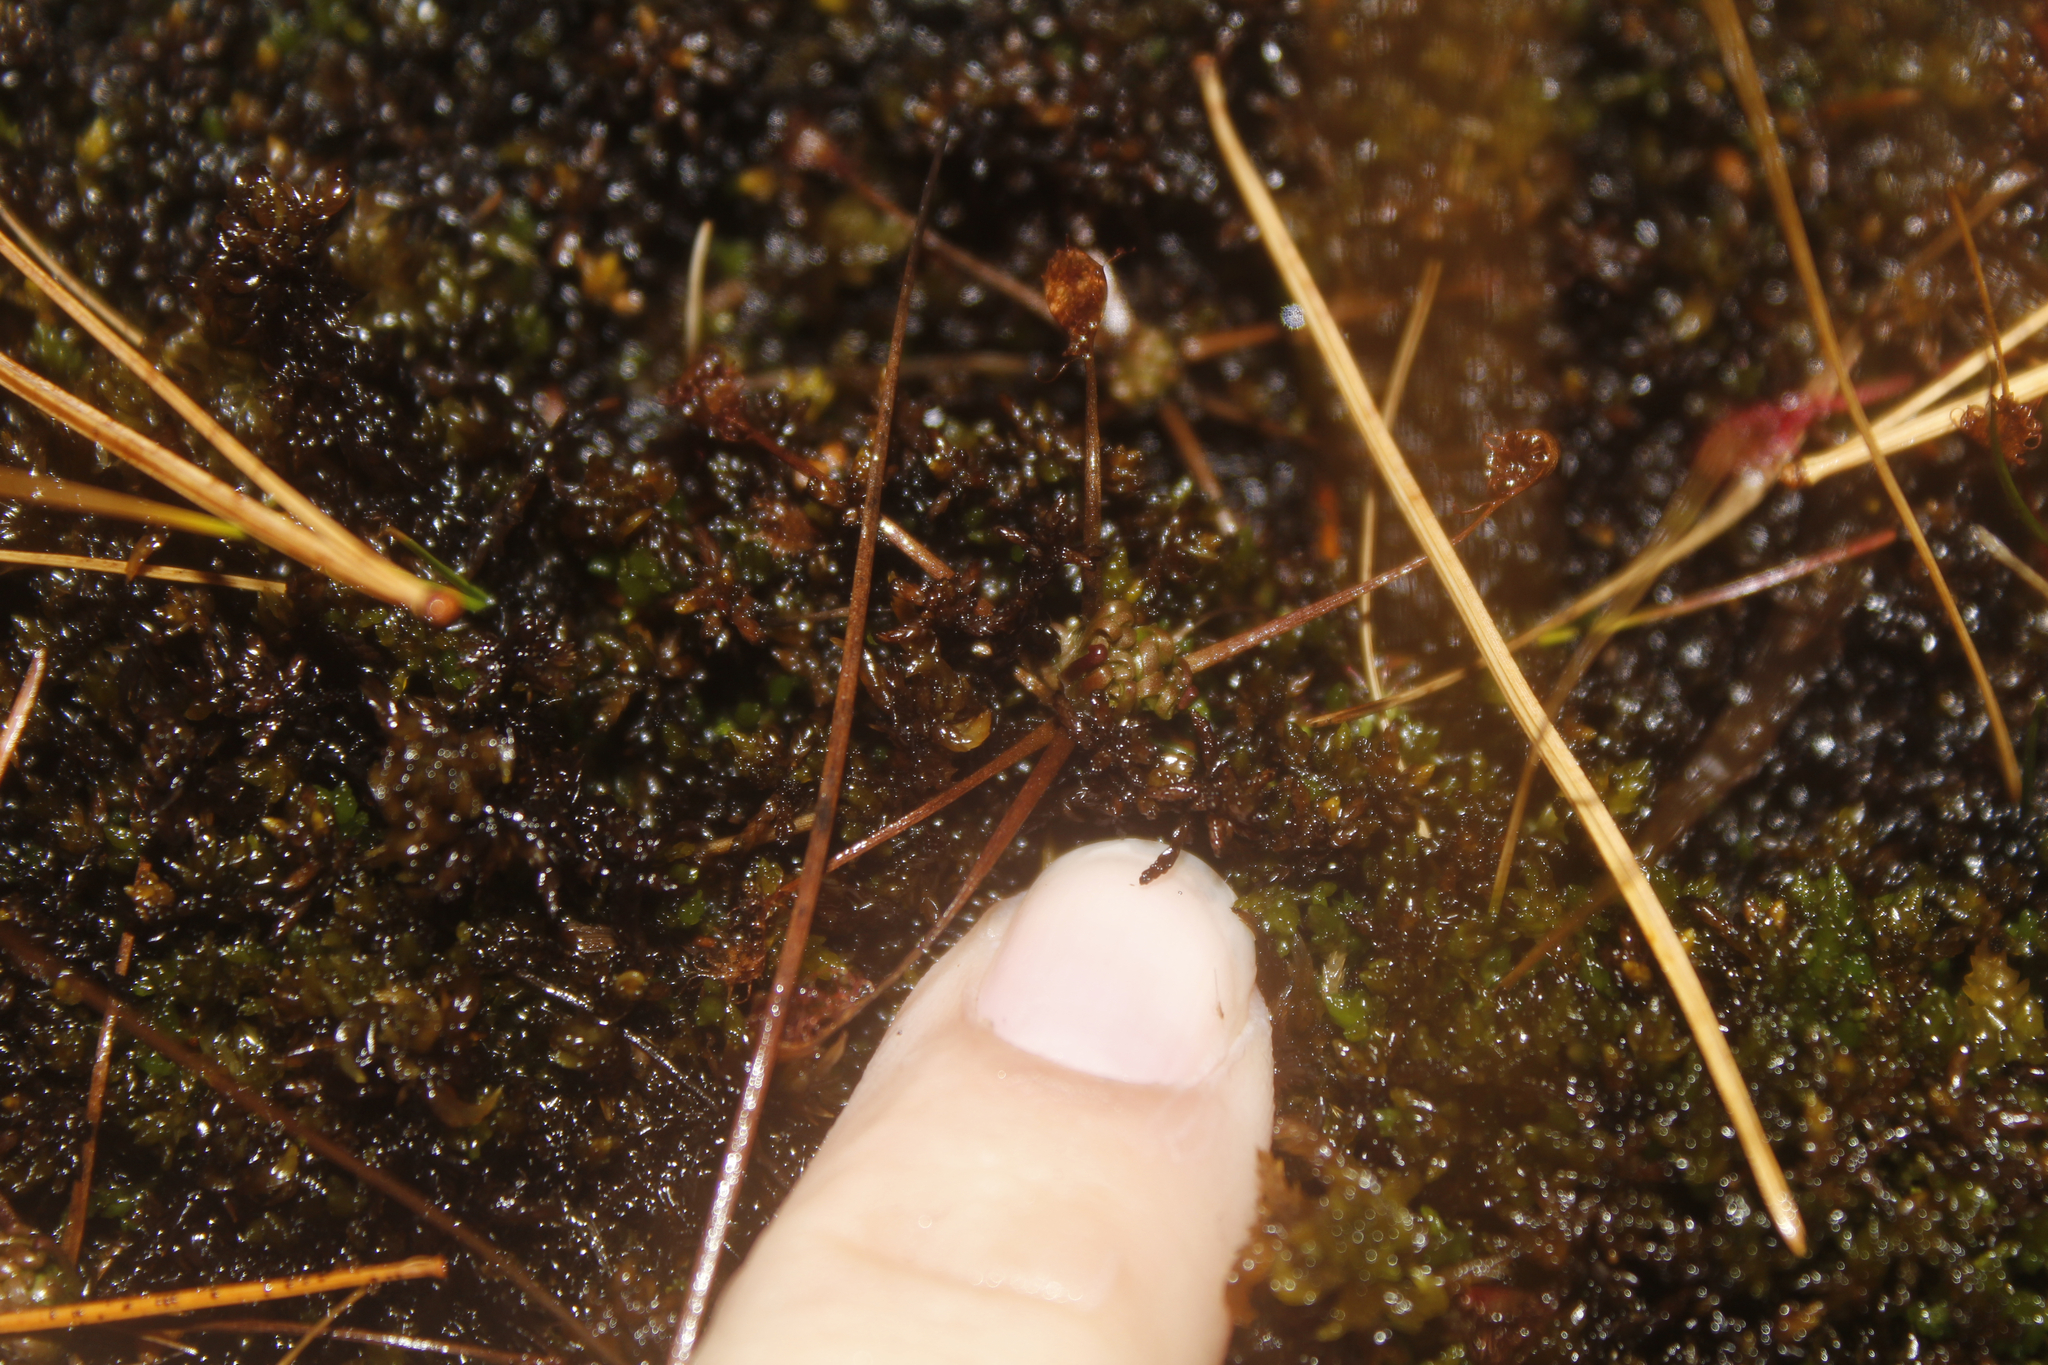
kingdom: Plantae
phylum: Tracheophyta
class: Magnoliopsida
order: Caryophyllales
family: Droseraceae
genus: Drosera
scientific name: Drosera intermedia
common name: Oblong-leaved sundew
